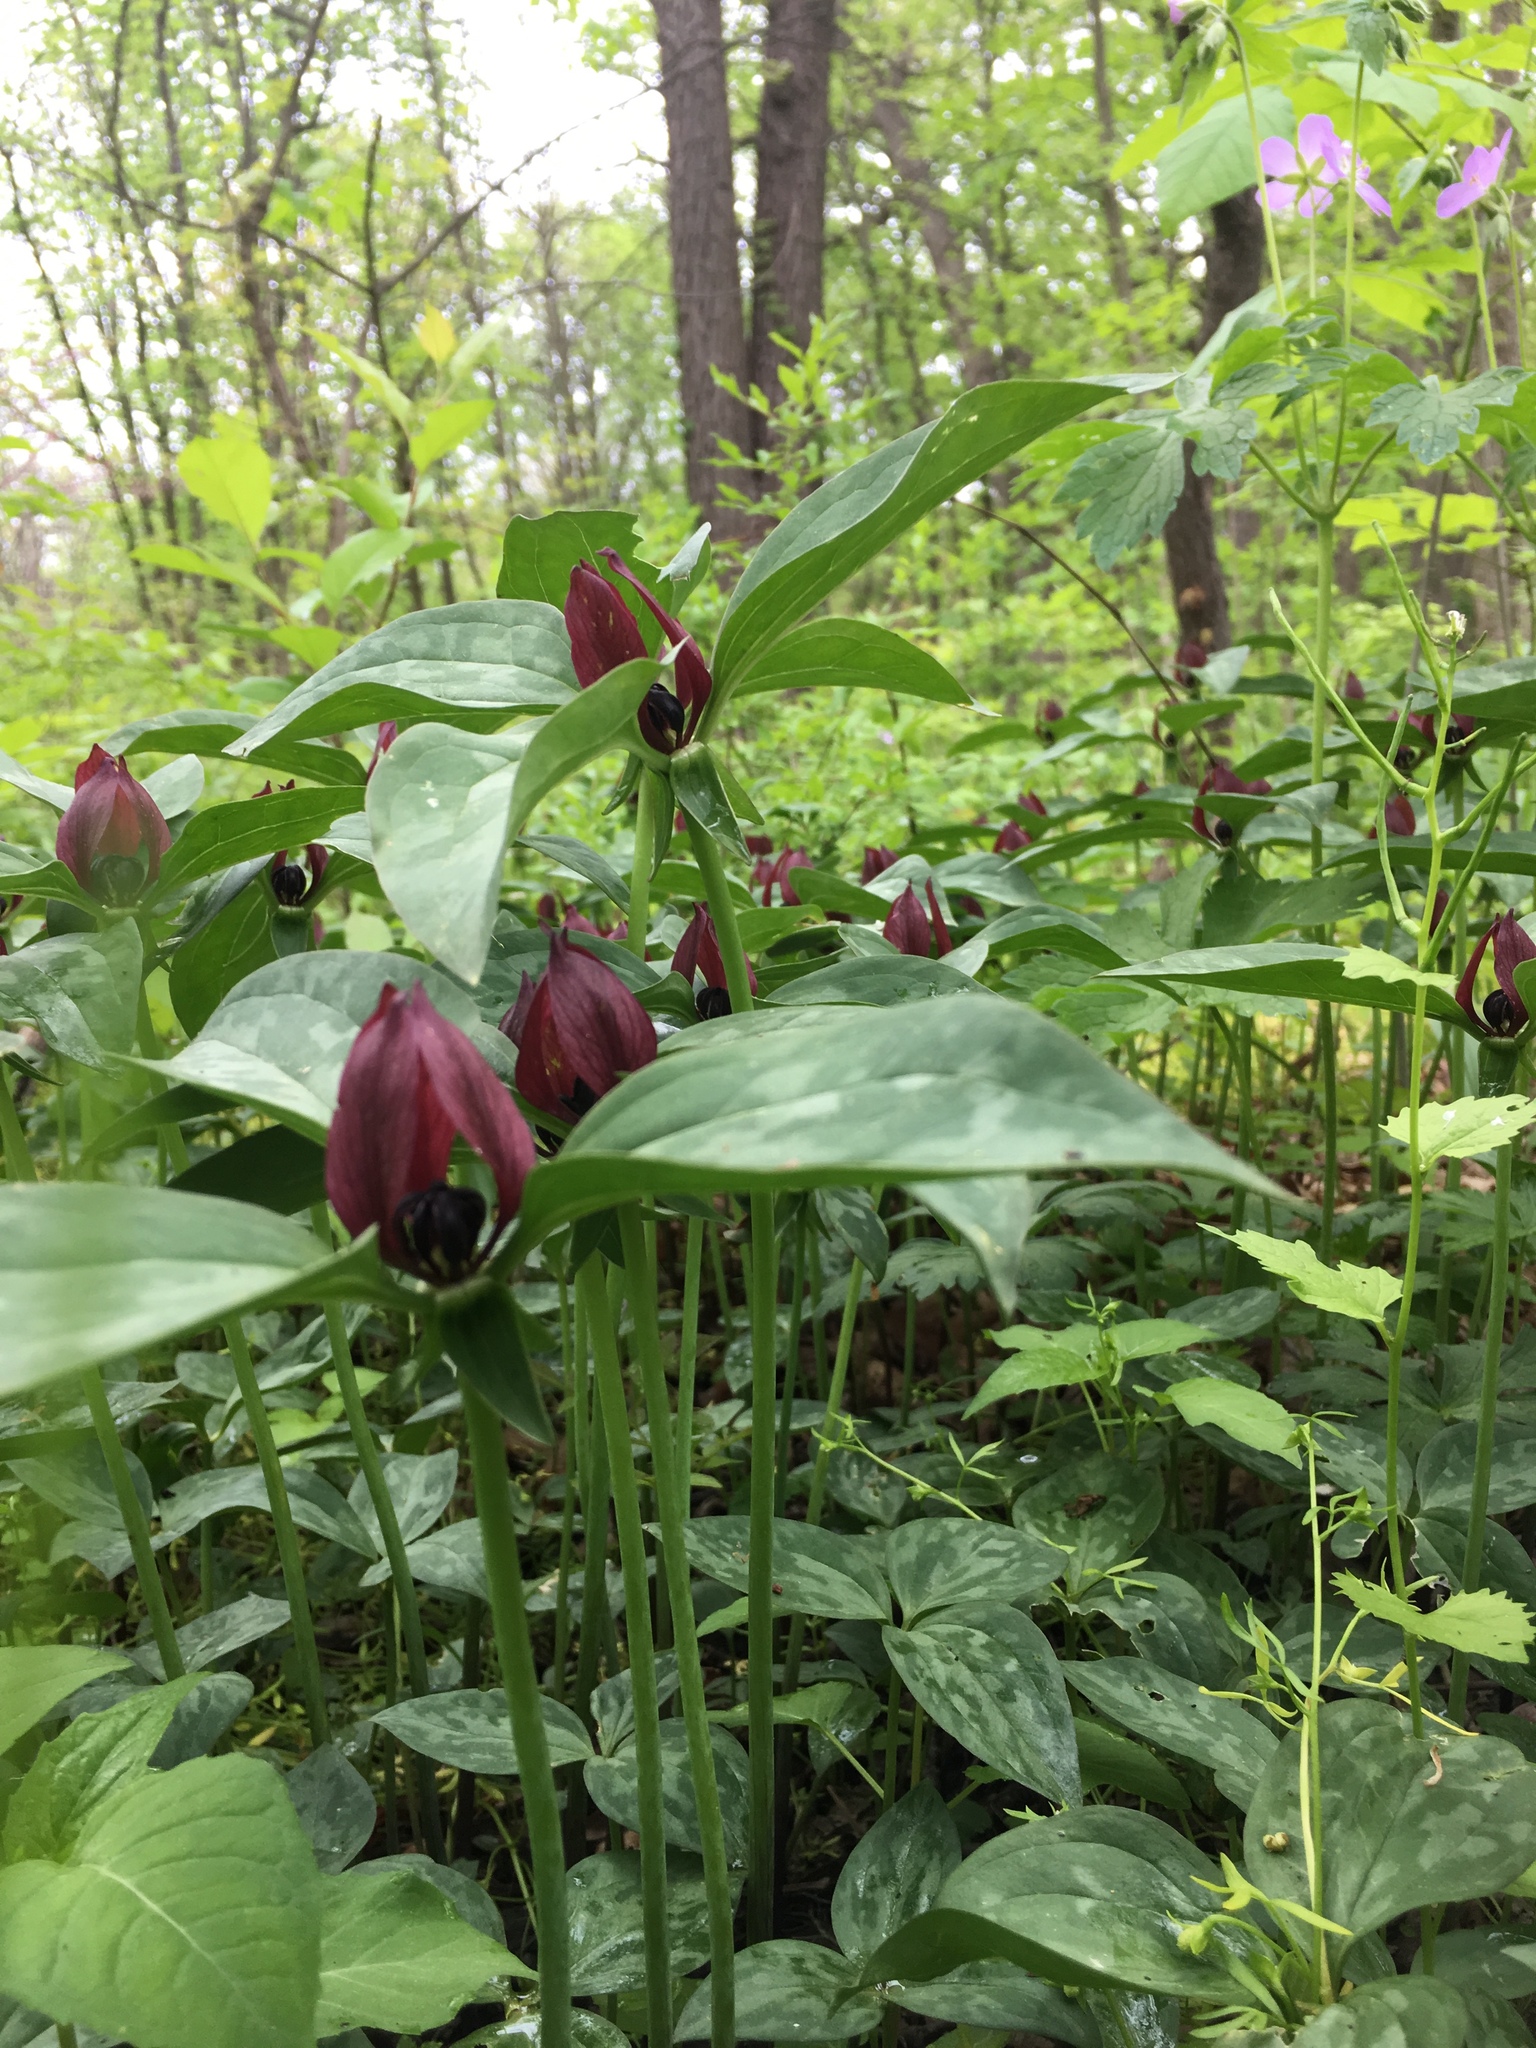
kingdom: Plantae
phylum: Tracheophyta
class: Liliopsida
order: Liliales
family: Melanthiaceae
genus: Trillium
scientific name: Trillium recurvatum
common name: Bloody butcher
